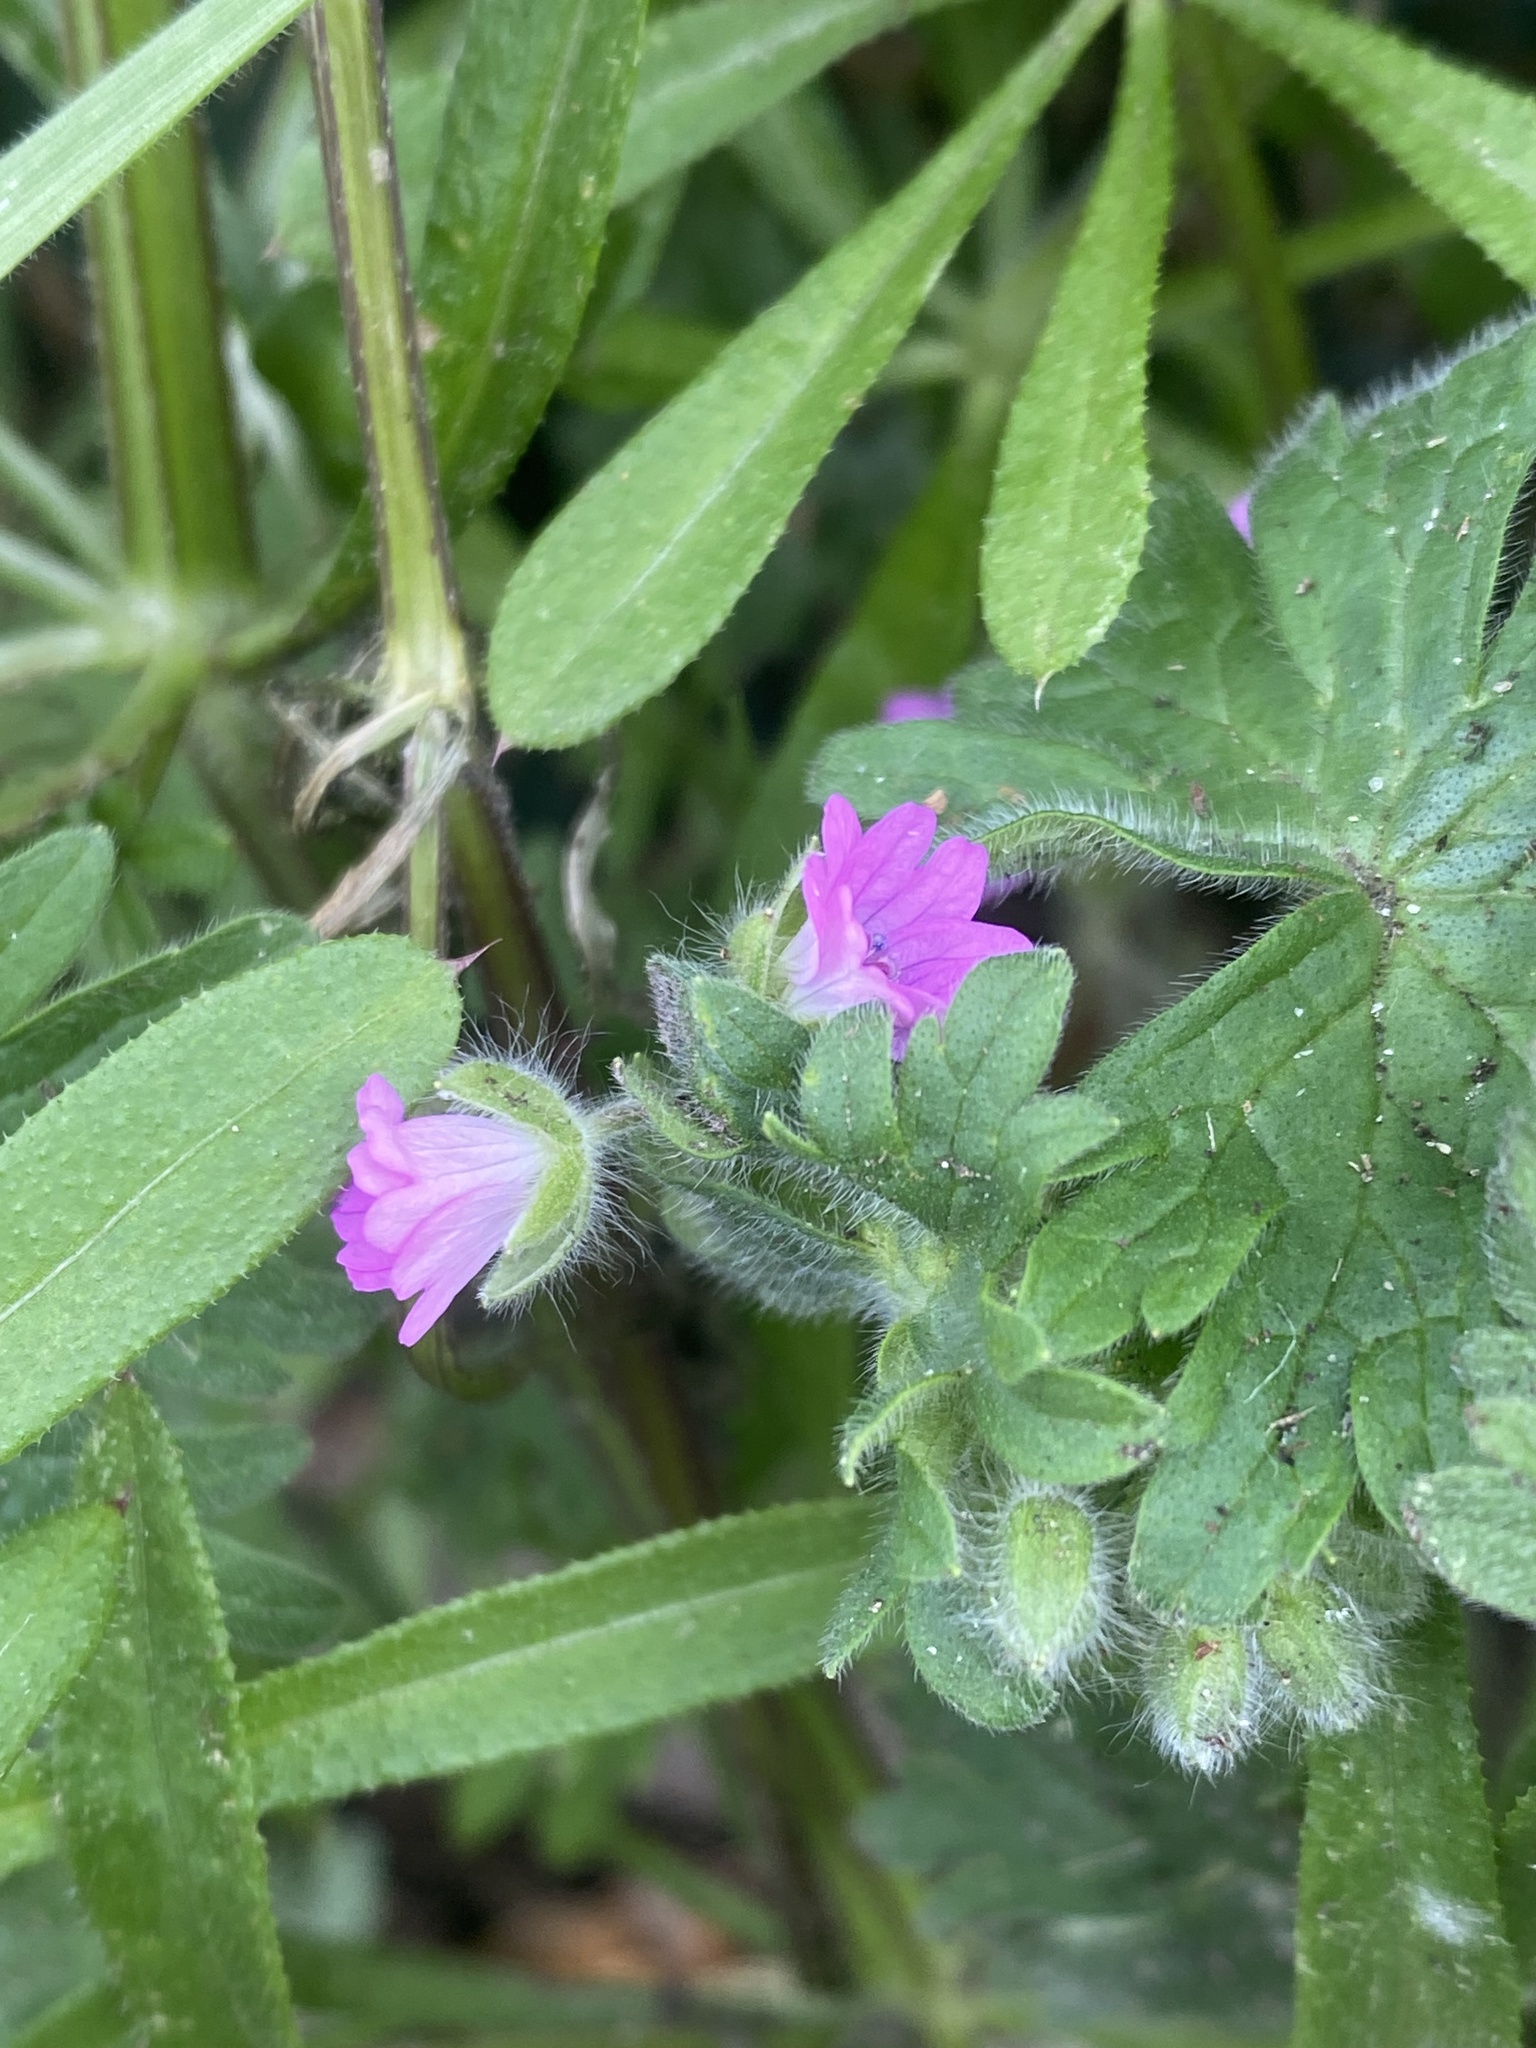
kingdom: Plantae
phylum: Tracheophyta
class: Magnoliopsida
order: Geraniales
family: Geraniaceae
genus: Geranium
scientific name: Geranium molle
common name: Dove's-foot crane's-bill
